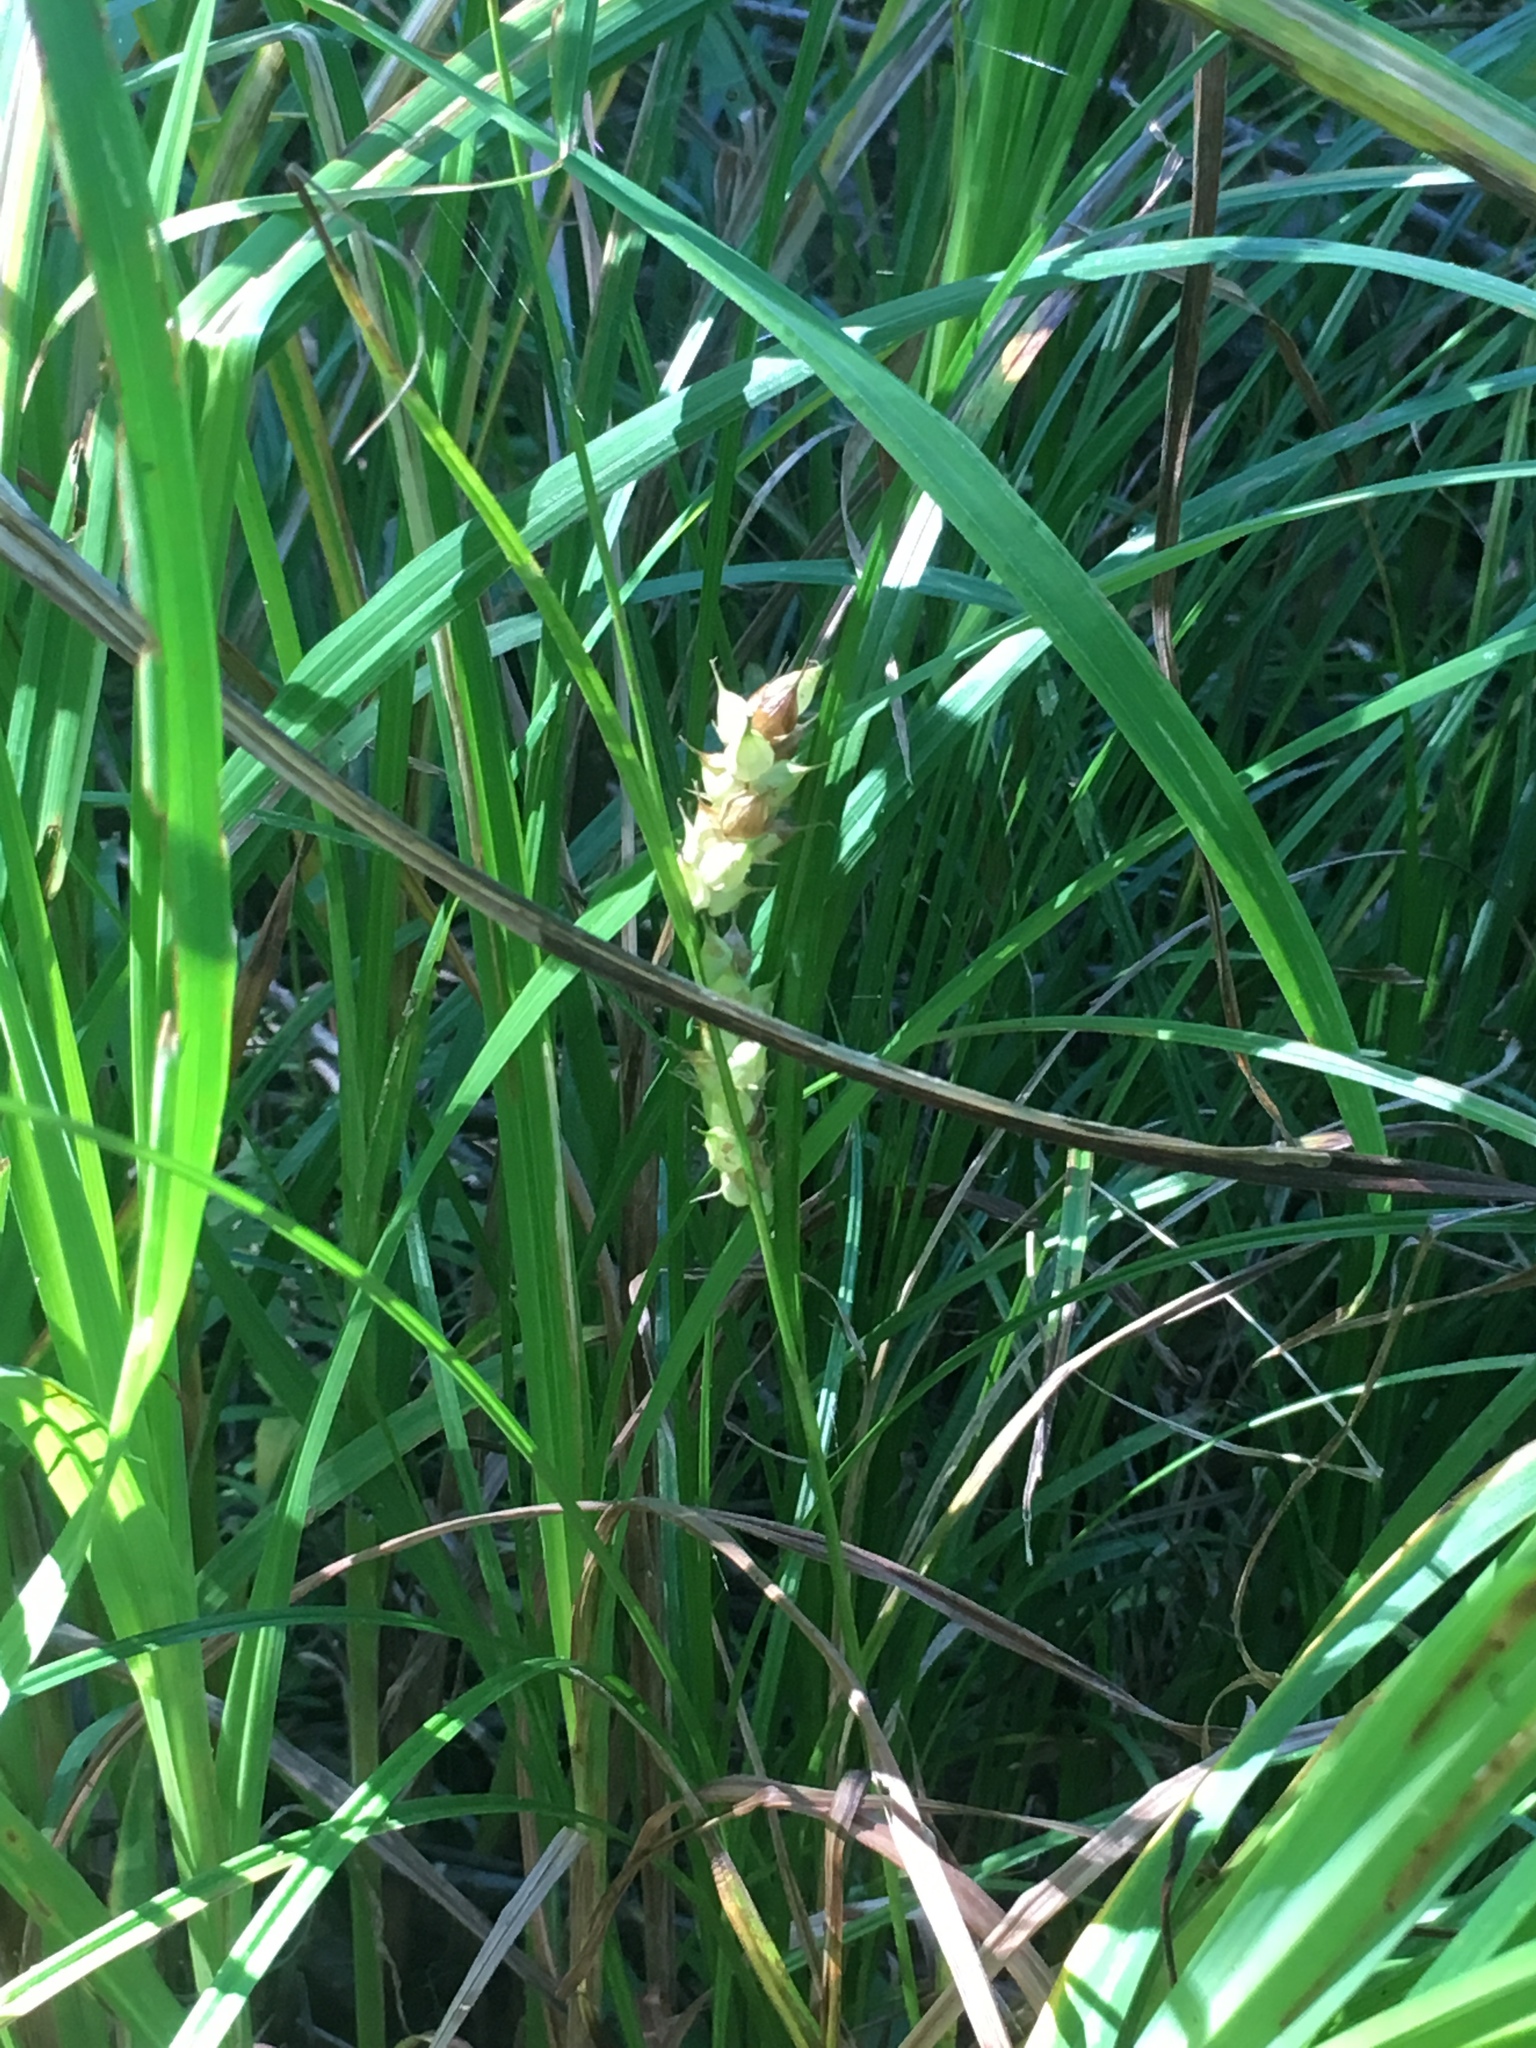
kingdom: Plantae
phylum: Tracheophyta
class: Liliopsida
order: Poales
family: Cyperaceae
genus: Carex
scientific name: Carex tuckermanii
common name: Tuckerman's sedge
